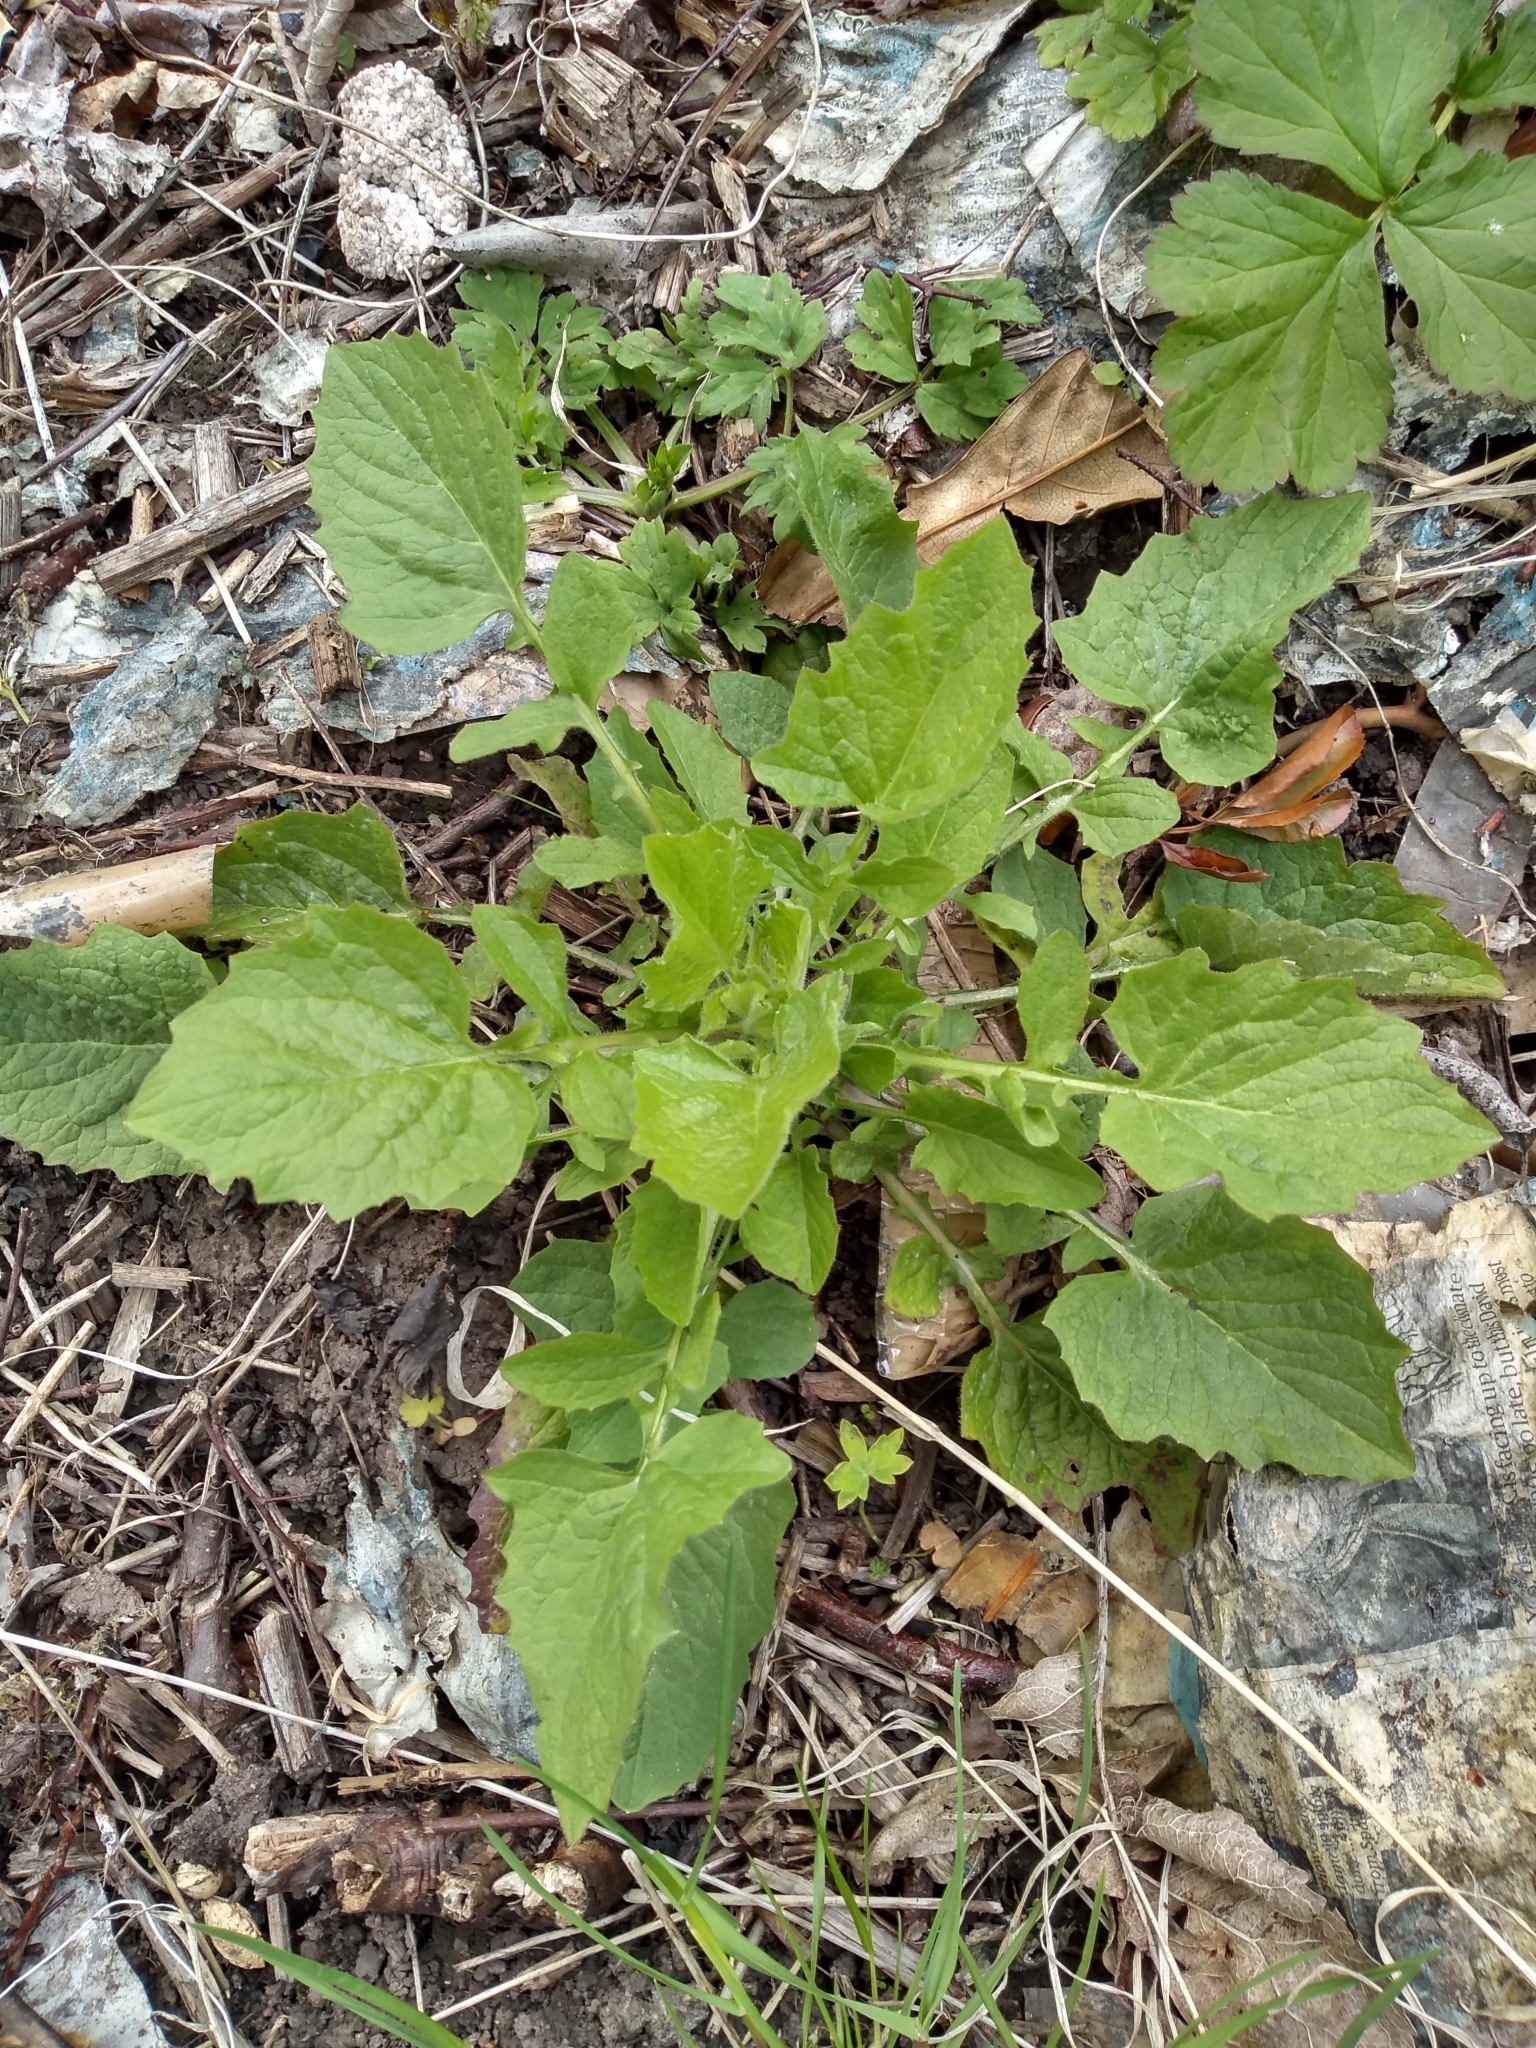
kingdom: Plantae
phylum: Tracheophyta
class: Magnoliopsida
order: Asterales
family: Asteraceae
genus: Lapsana
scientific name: Lapsana communis
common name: Nipplewort
